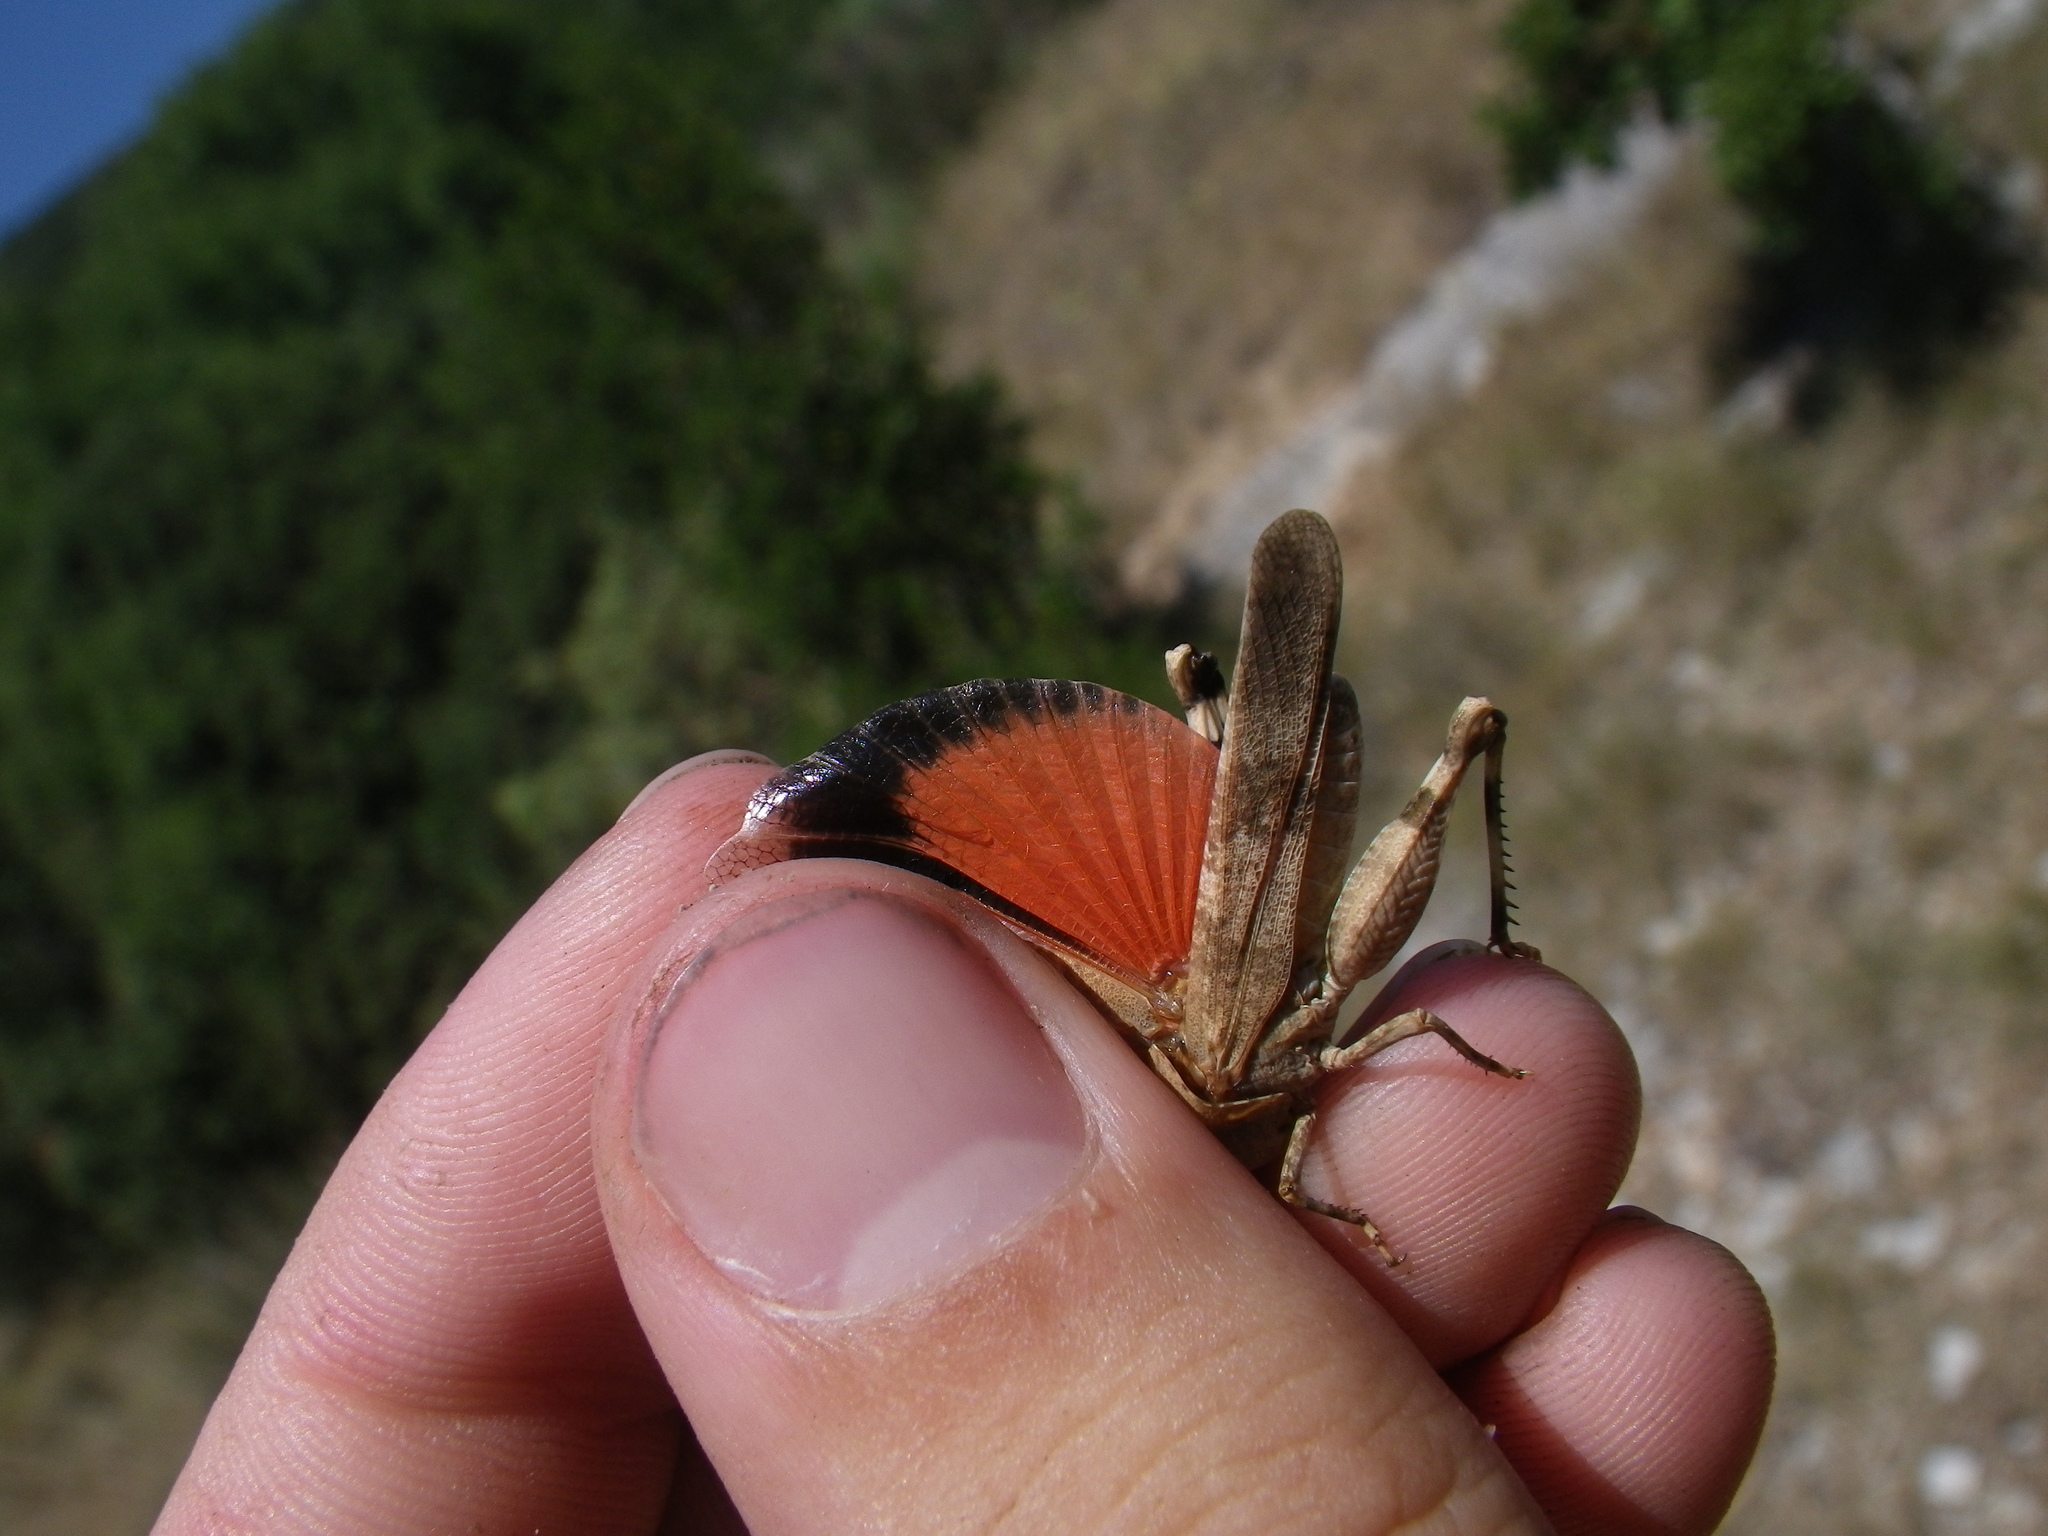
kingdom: Animalia
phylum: Arthropoda
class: Insecta
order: Orthoptera
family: Acrididae
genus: Oedipoda
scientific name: Oedipoda germanica
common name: Red band-winged grasshopper
